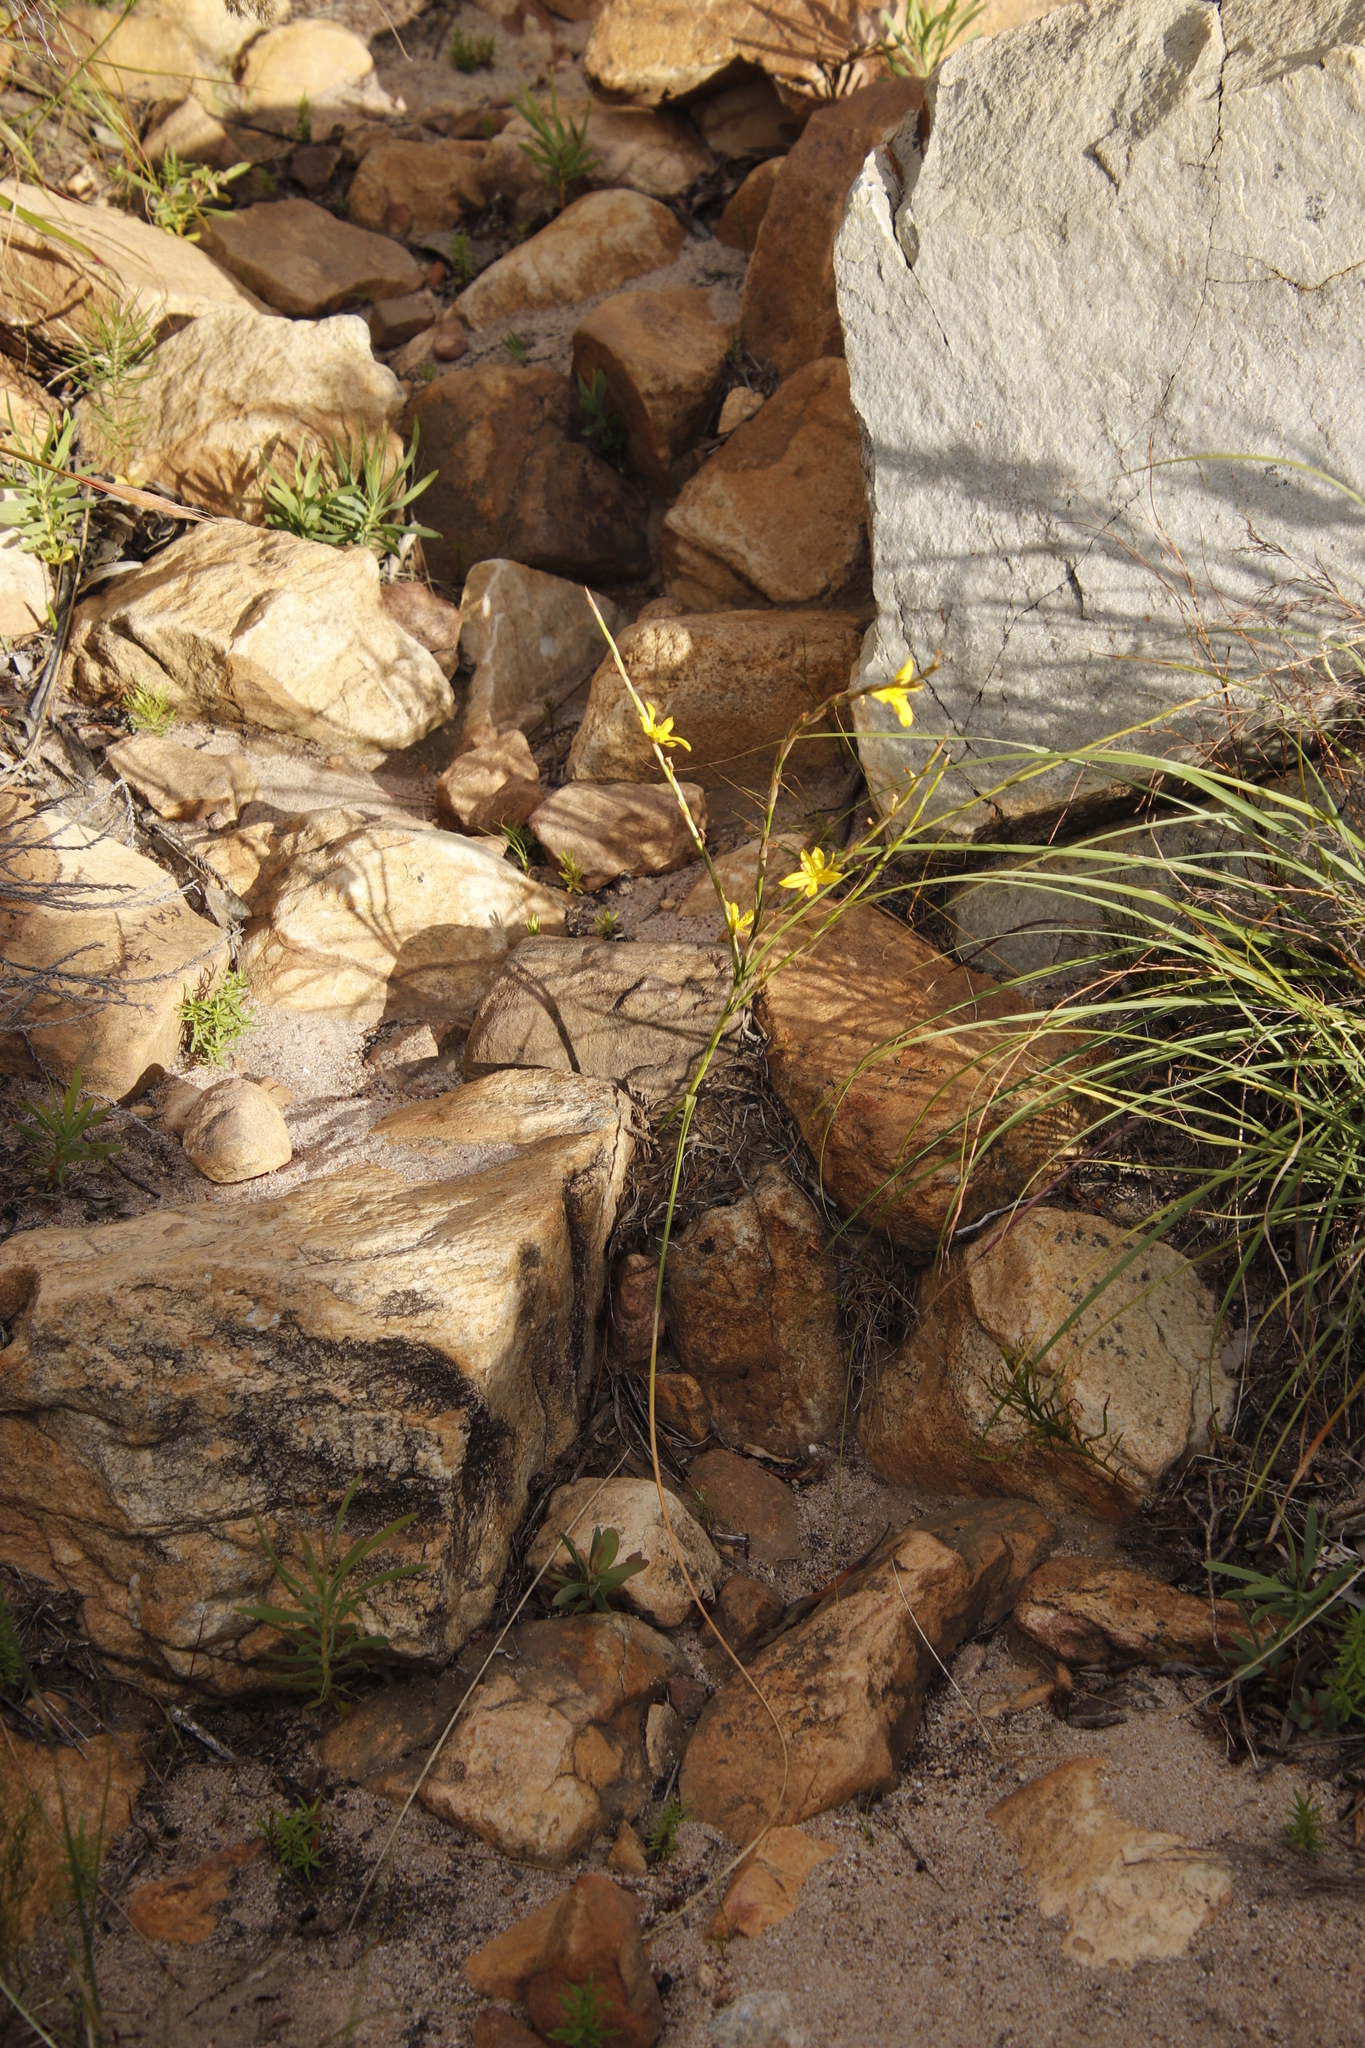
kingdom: Plantae
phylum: Tracheophyta
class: Liliopsida
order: Asparagales
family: Iridaceae
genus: Moraea
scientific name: Moraea virgata
